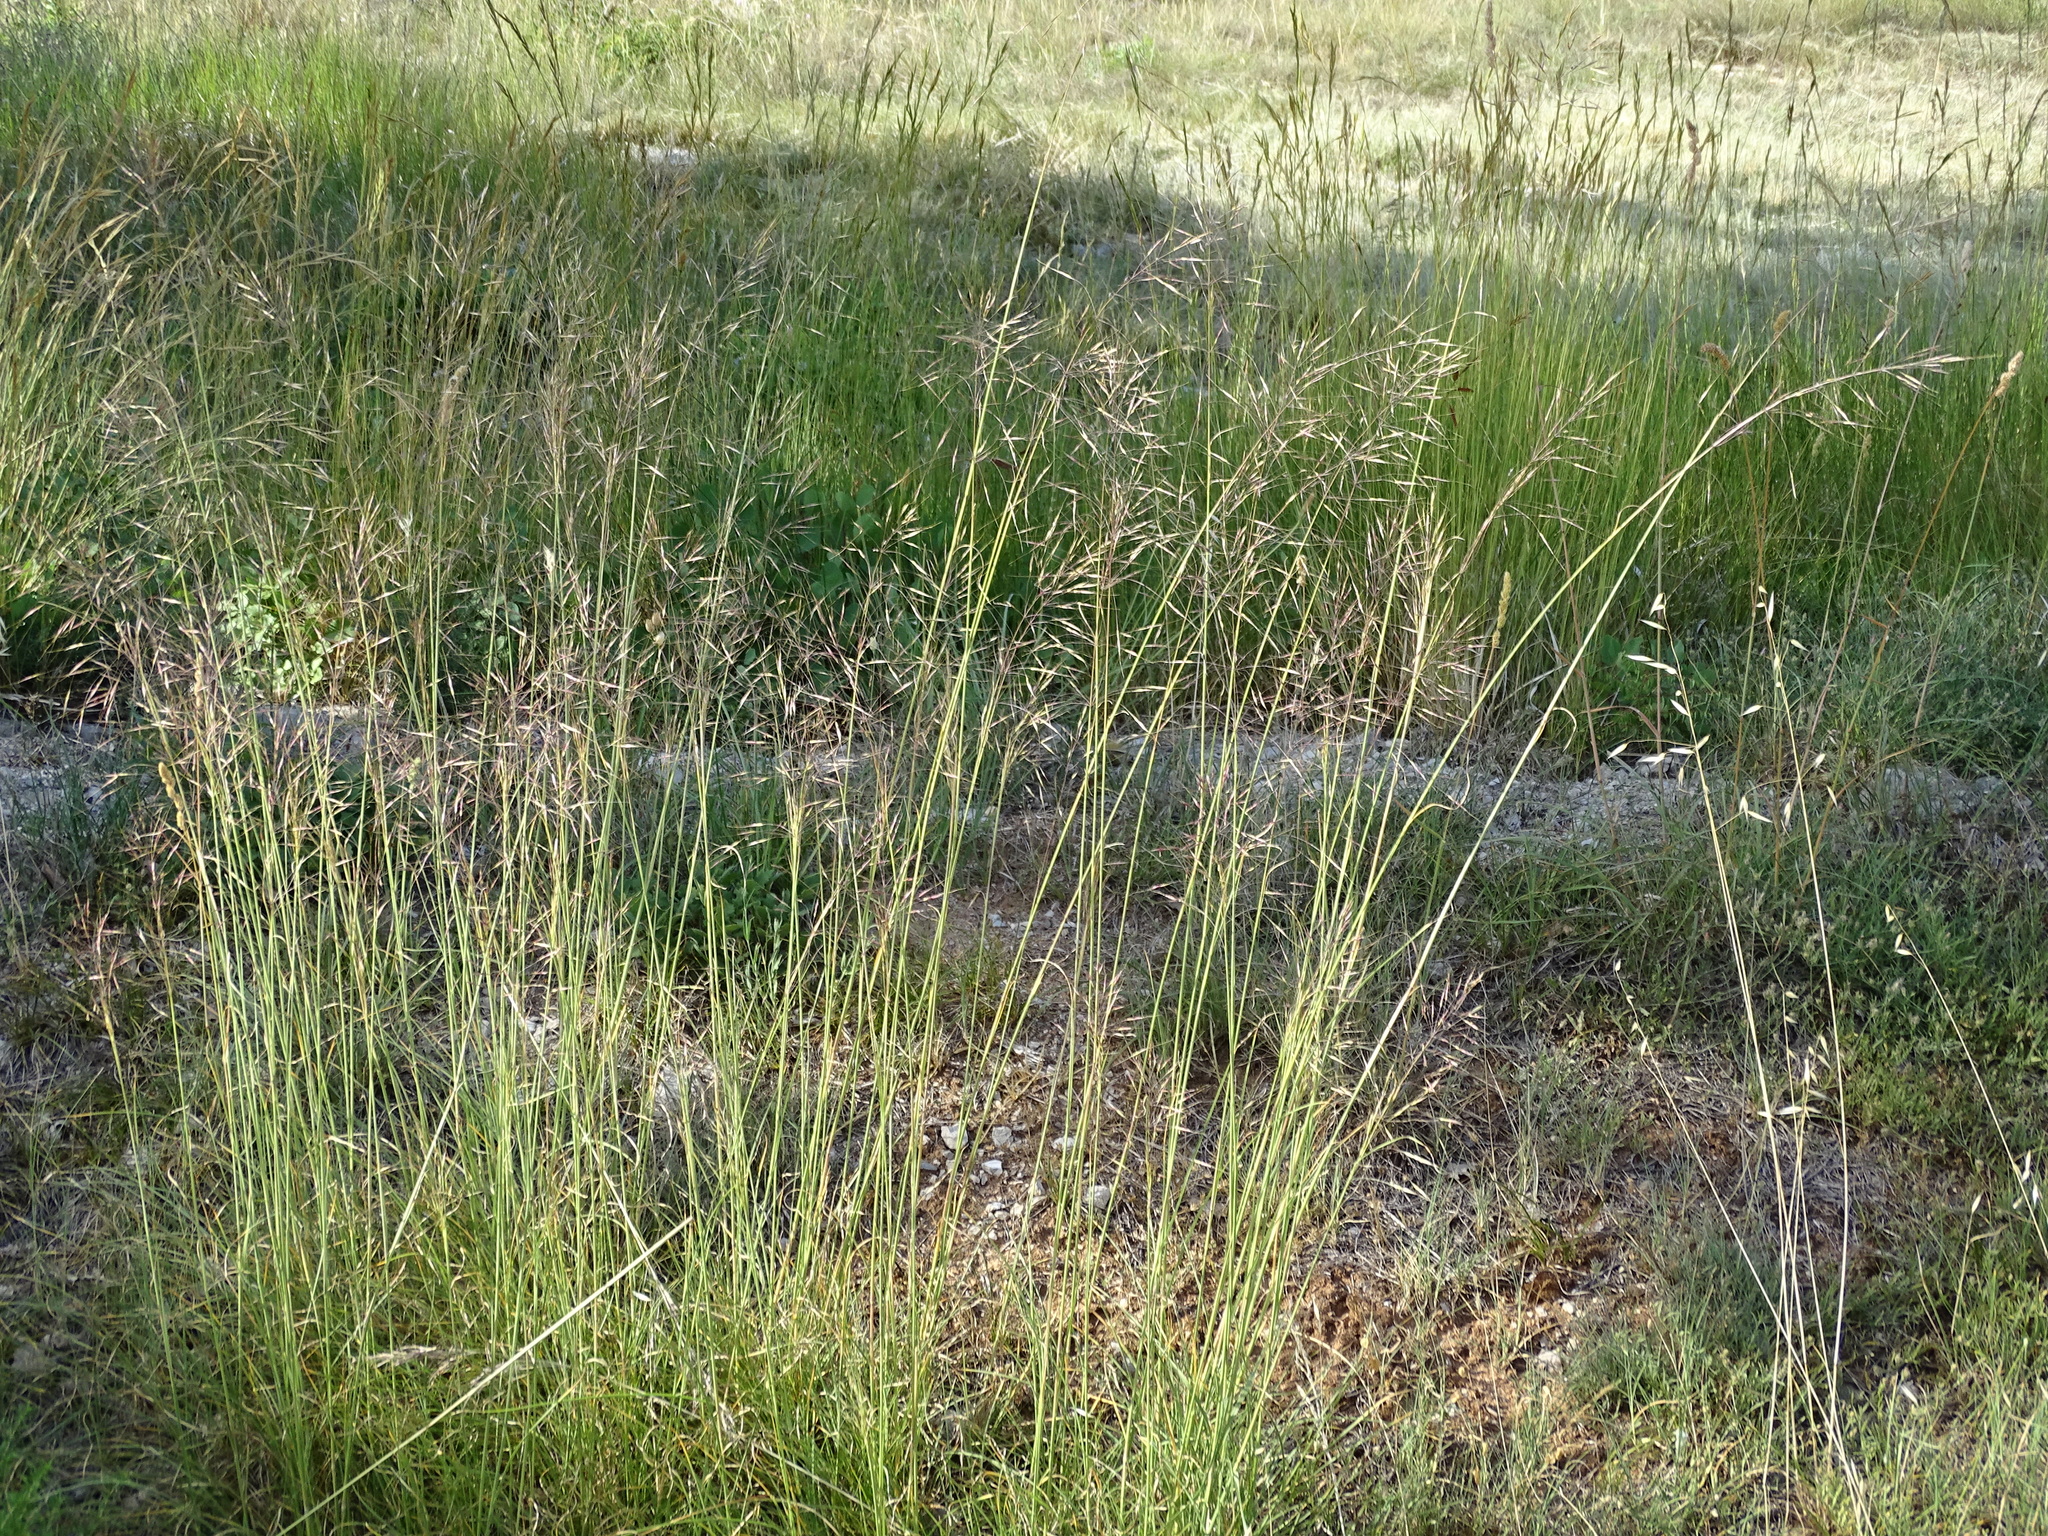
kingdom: Plantae
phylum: Tracheophyta
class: Liliopsida
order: Poales
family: Poaceae
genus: Chrysopogon
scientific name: Chrysopogon gryllus
